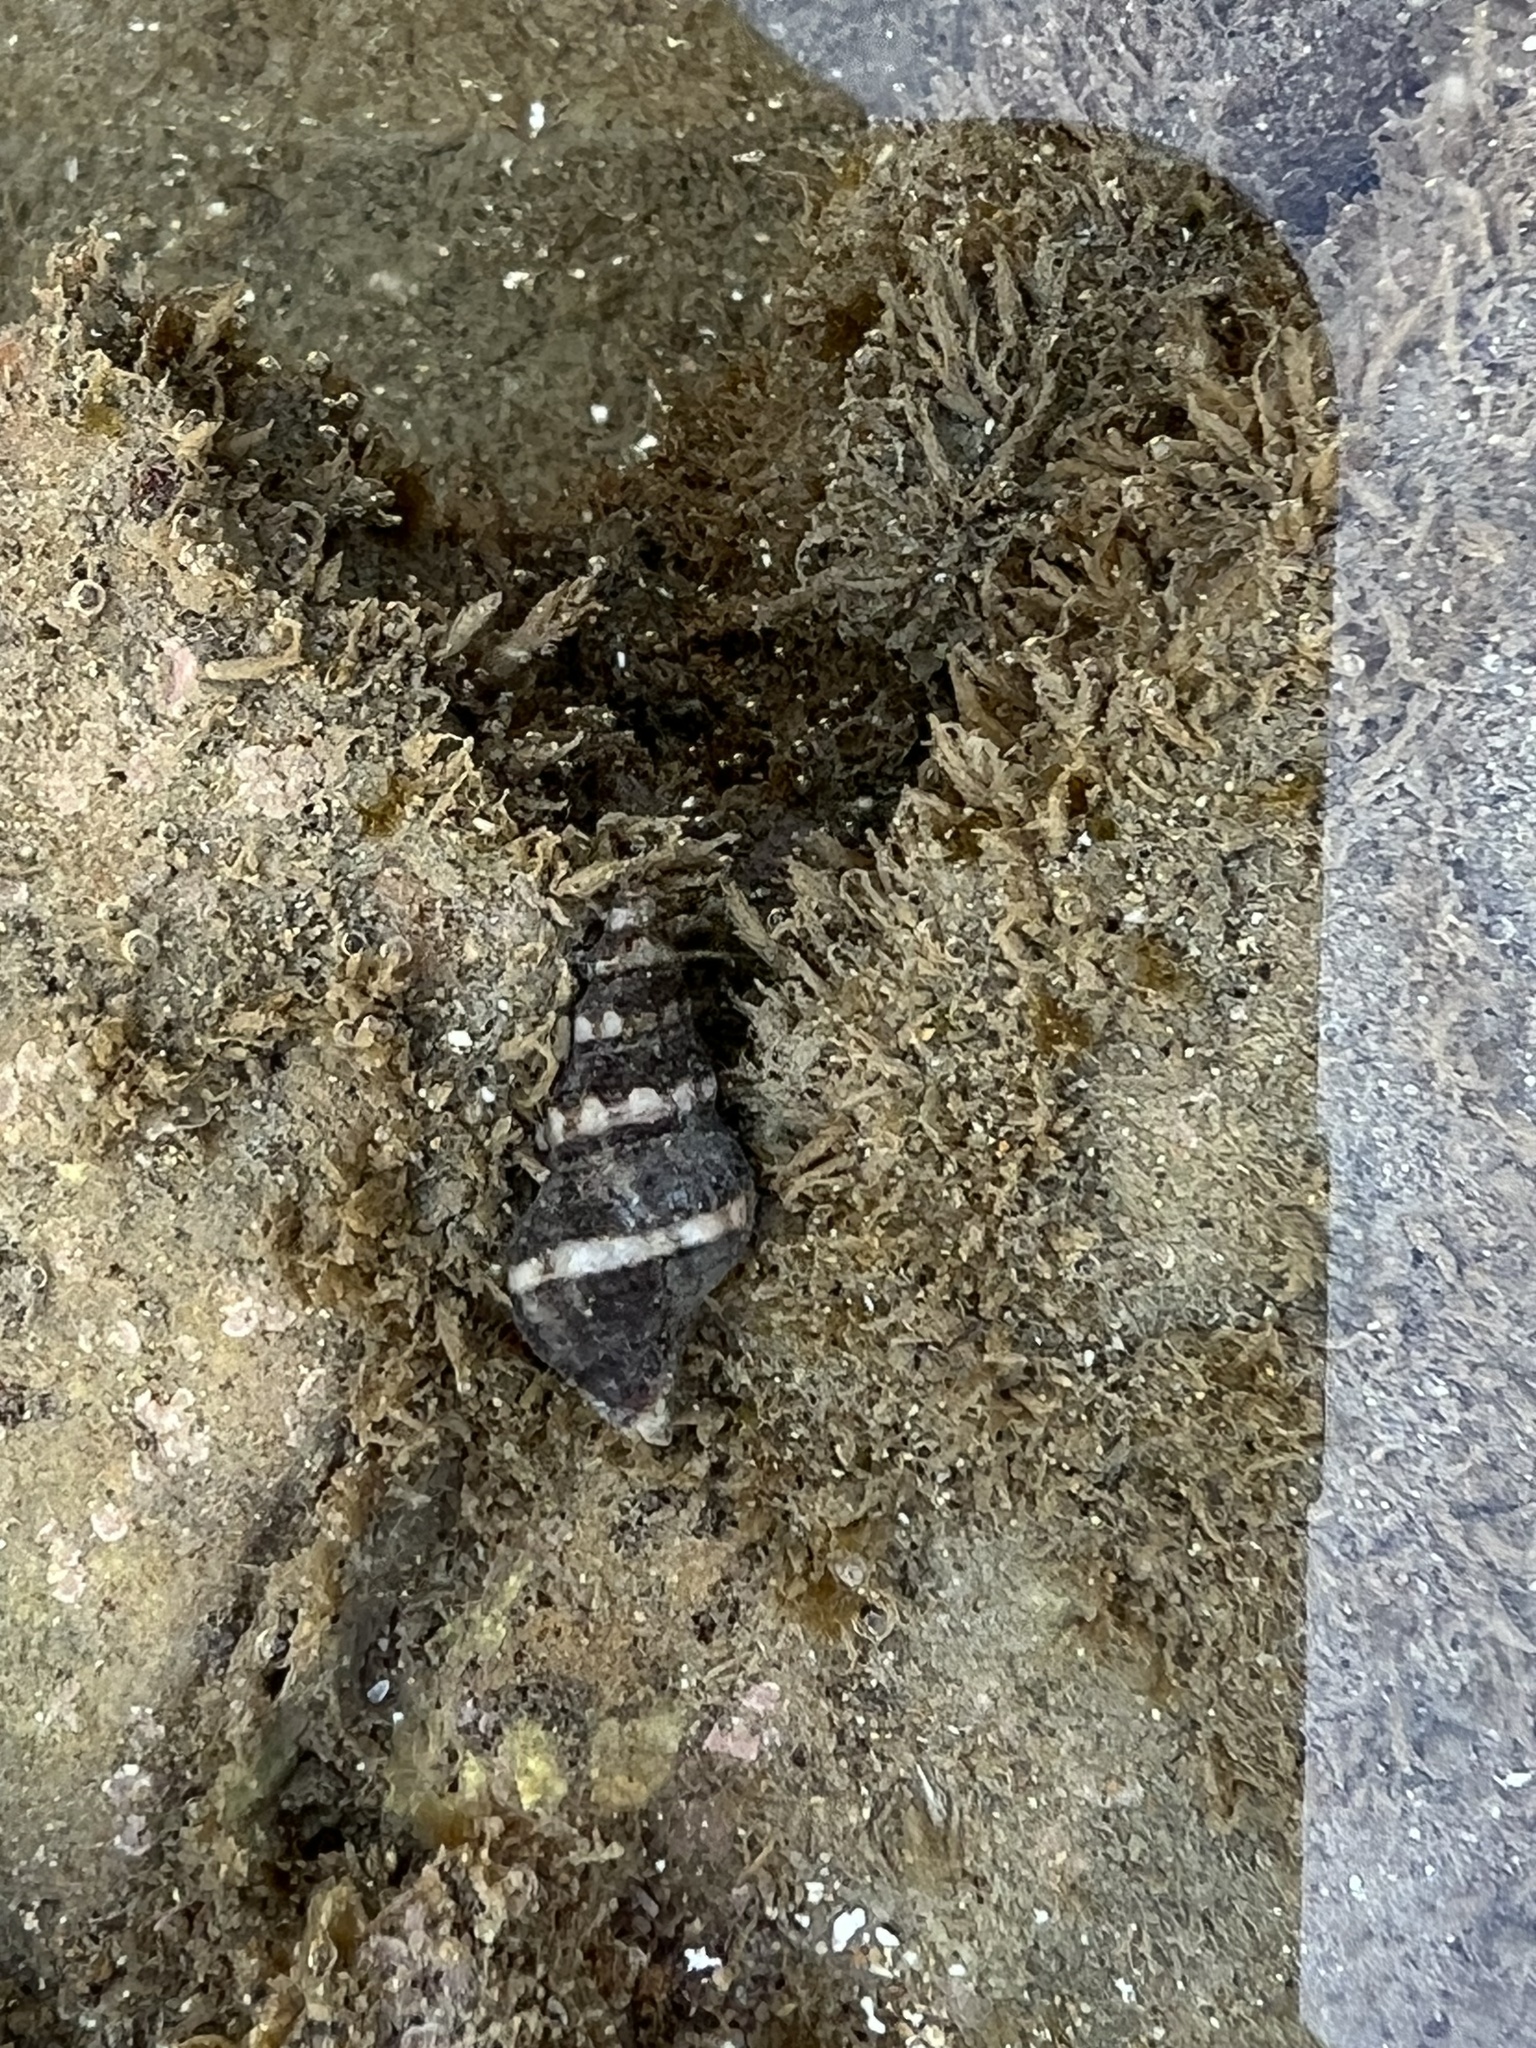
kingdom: Animalia
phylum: Mollusca
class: Gastropoda
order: Neogastropoda
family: Fasciolariidae
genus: Hesperaptyxis
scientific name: Hesperaptyxis luteopictus
